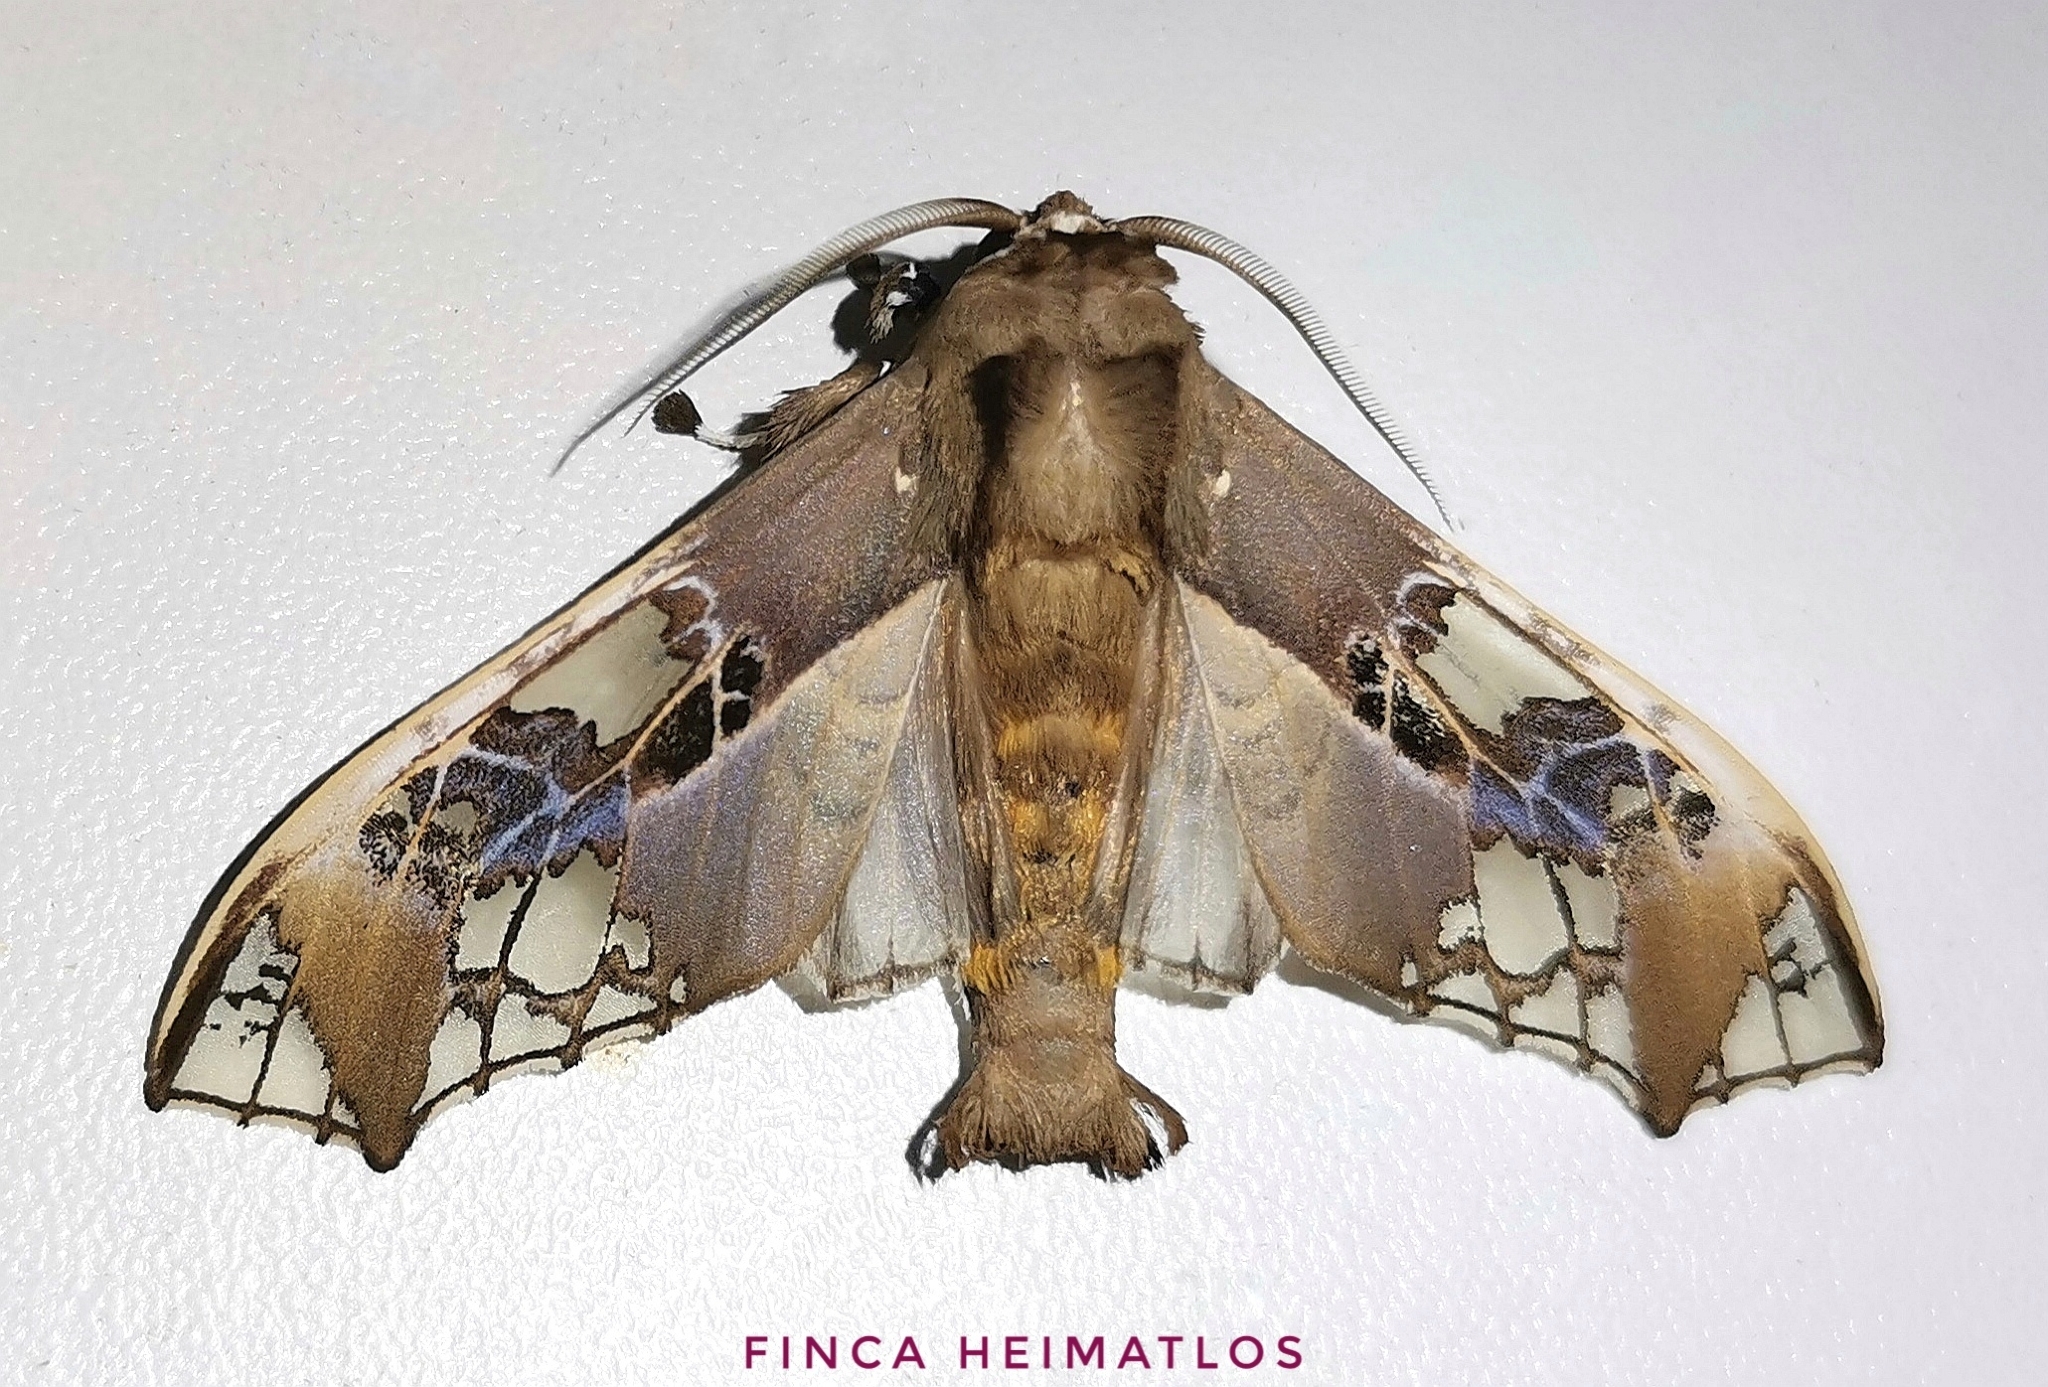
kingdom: Animalia
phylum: Arthropoda
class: Insecta
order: Lepidoptera
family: Erebidae
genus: Parathyris
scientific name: Parathyris cedonulli
